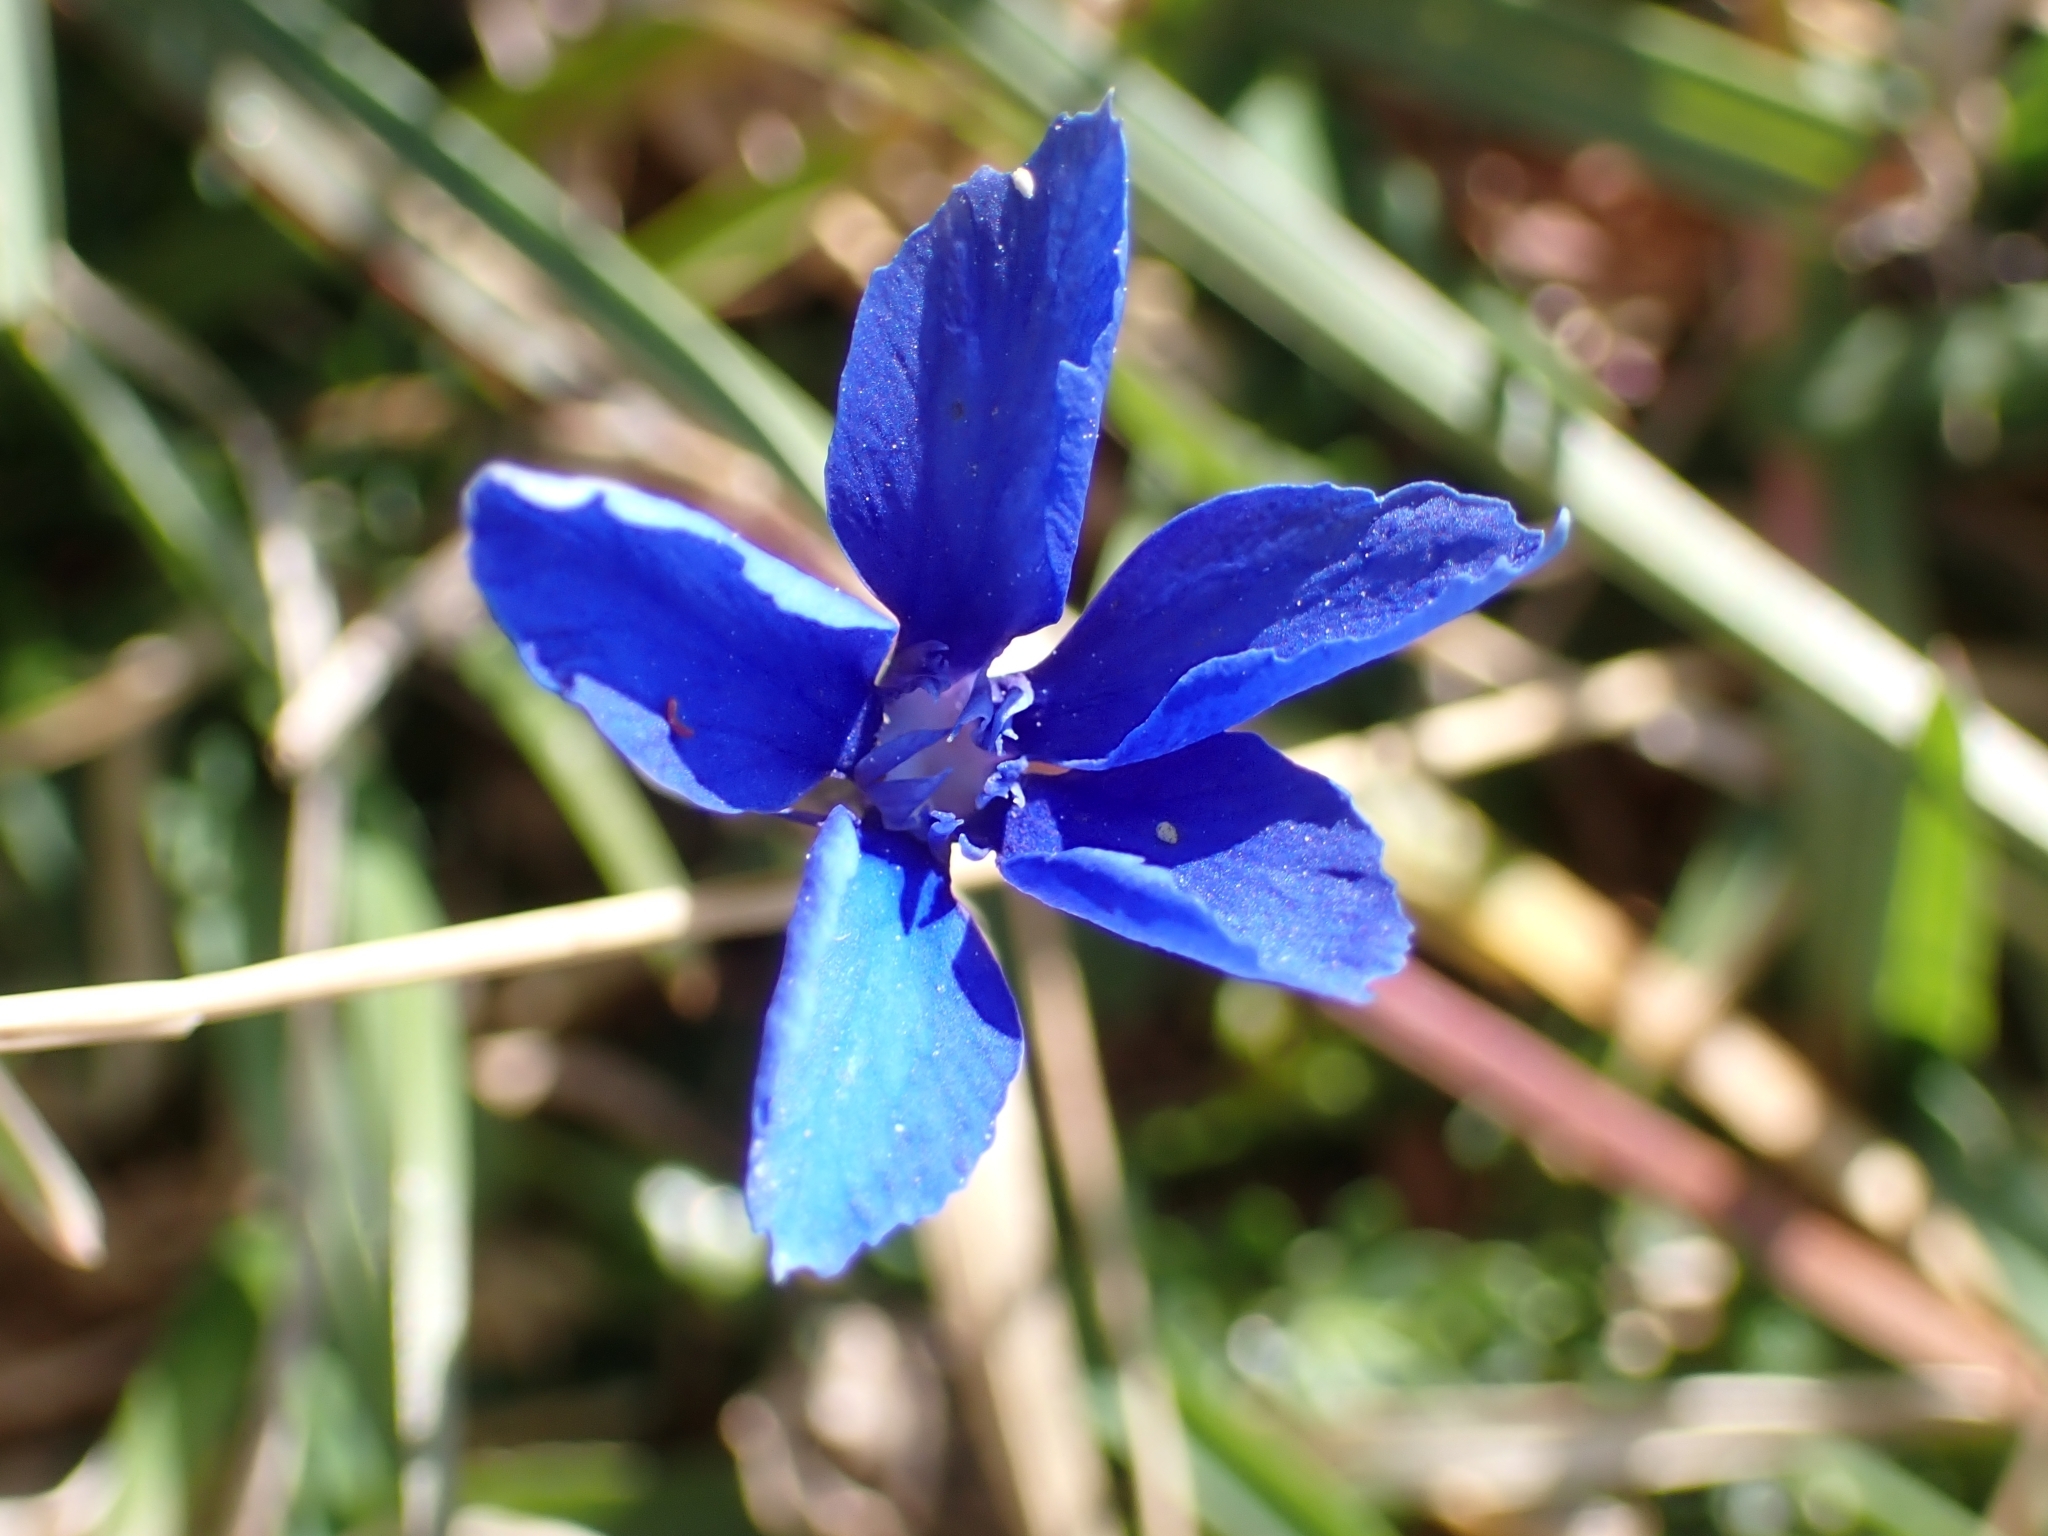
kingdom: Plantae
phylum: Tracheophyta
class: Magnoliopsida
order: Gentianales
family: Gentianaceae
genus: Gentiana
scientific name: Gentiana verna
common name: Spring gentian
